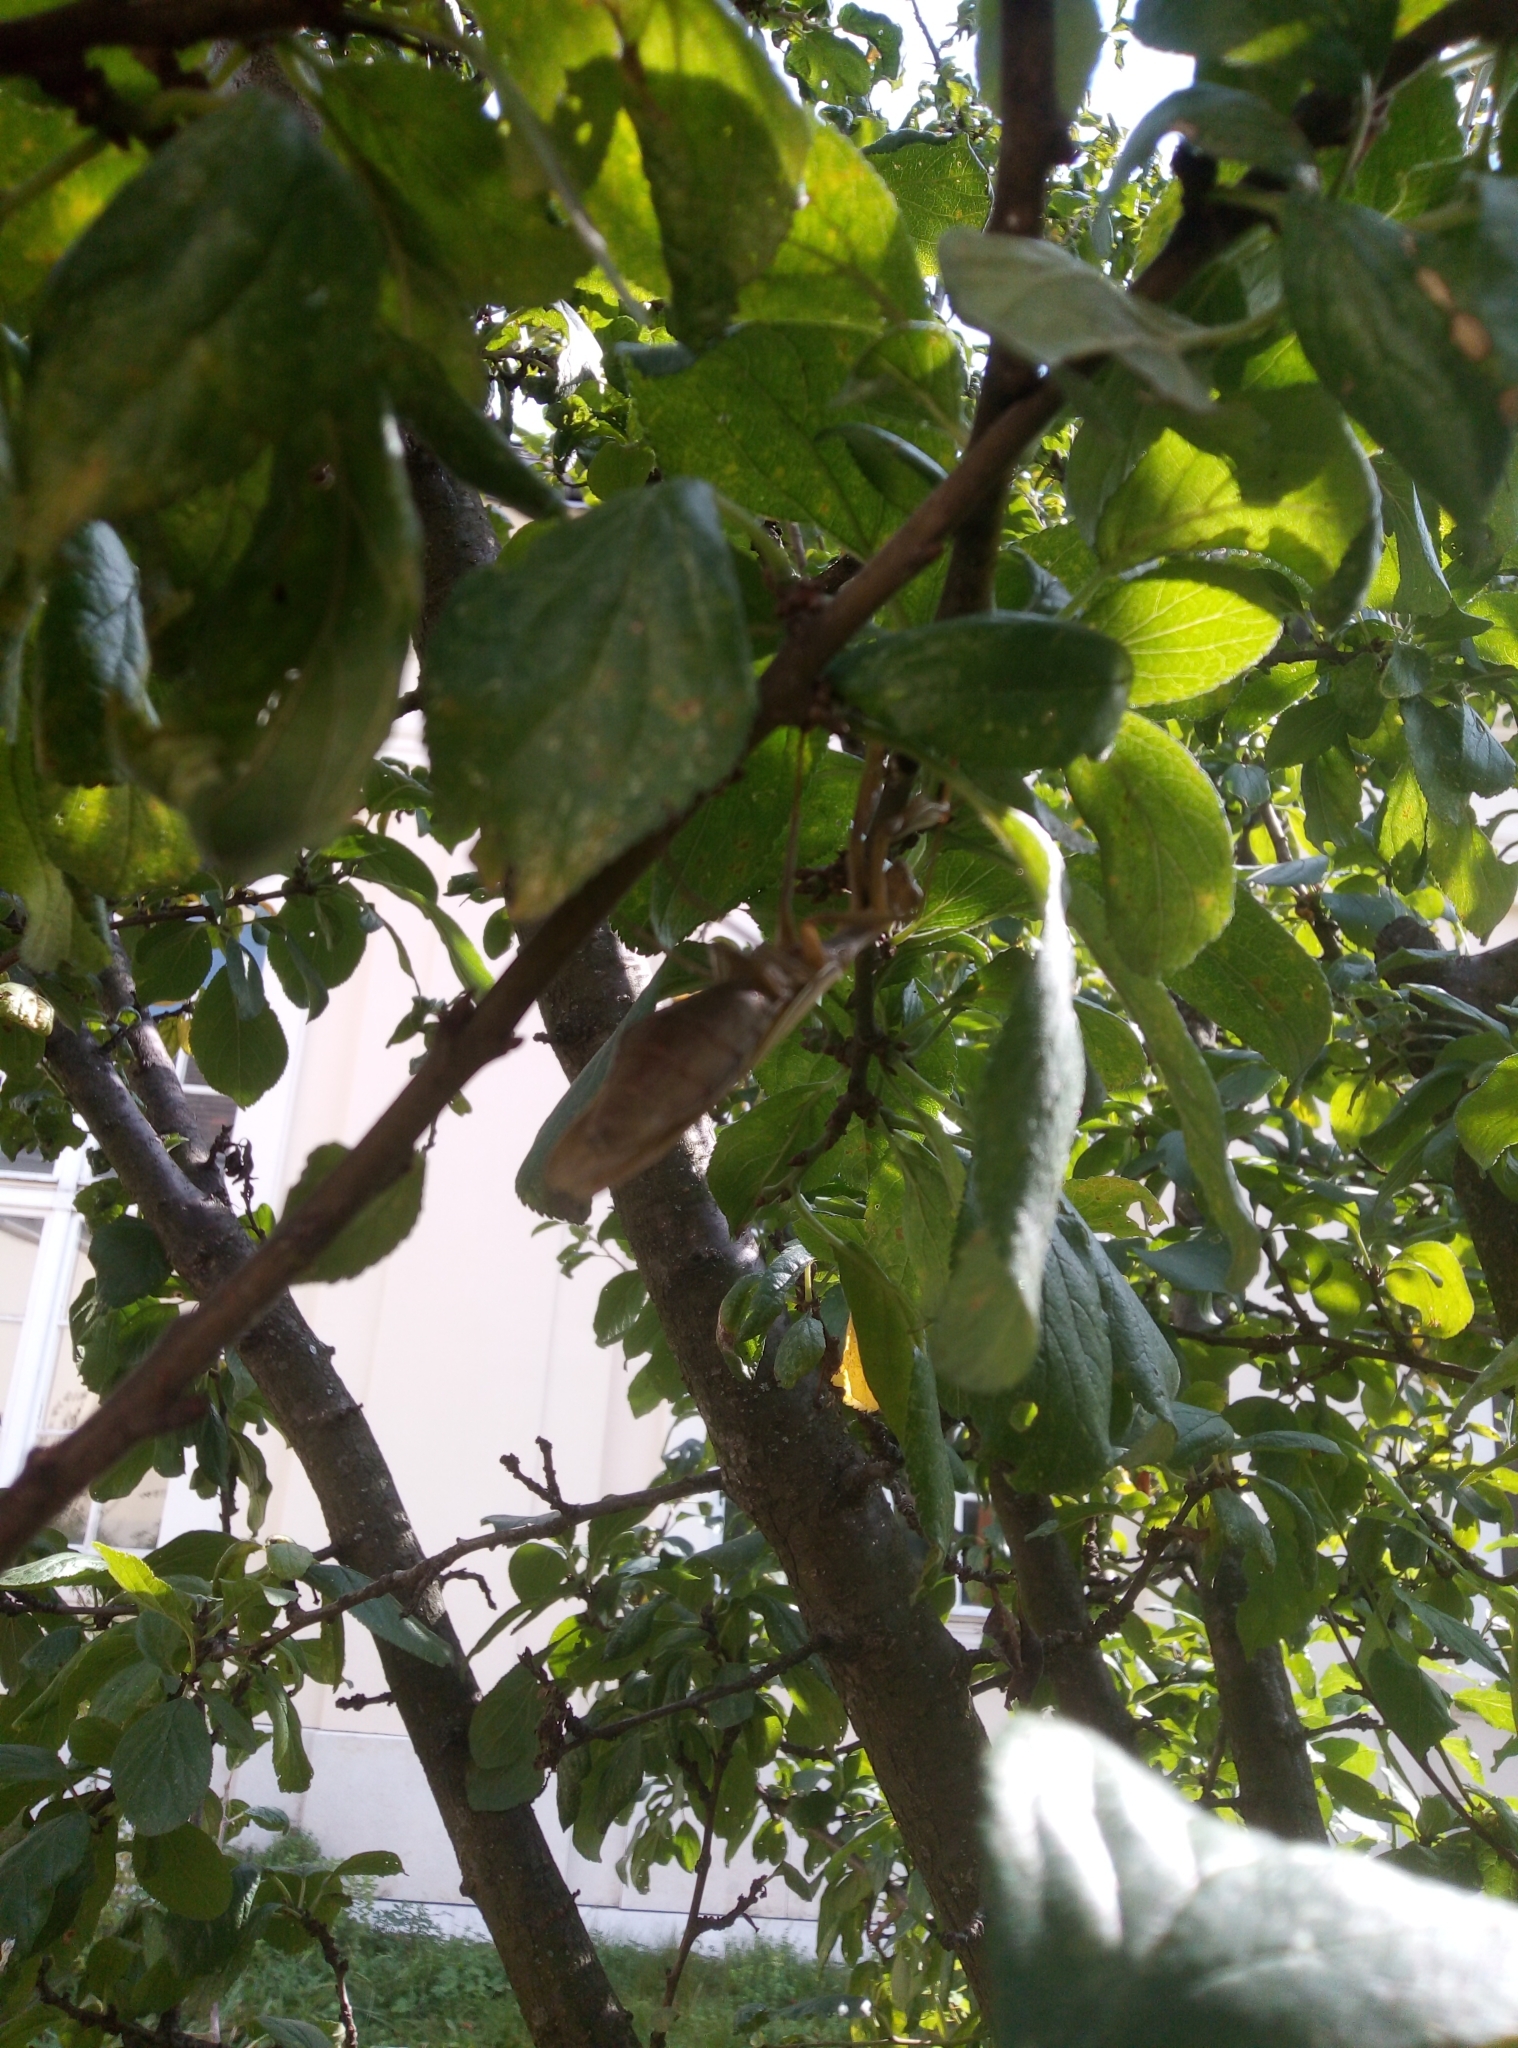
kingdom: Animalia
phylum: Arthropoda
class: Insecta
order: Mantodea
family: Mantidae
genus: Mantis
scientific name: Mantis religiosa
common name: Praying mantis
